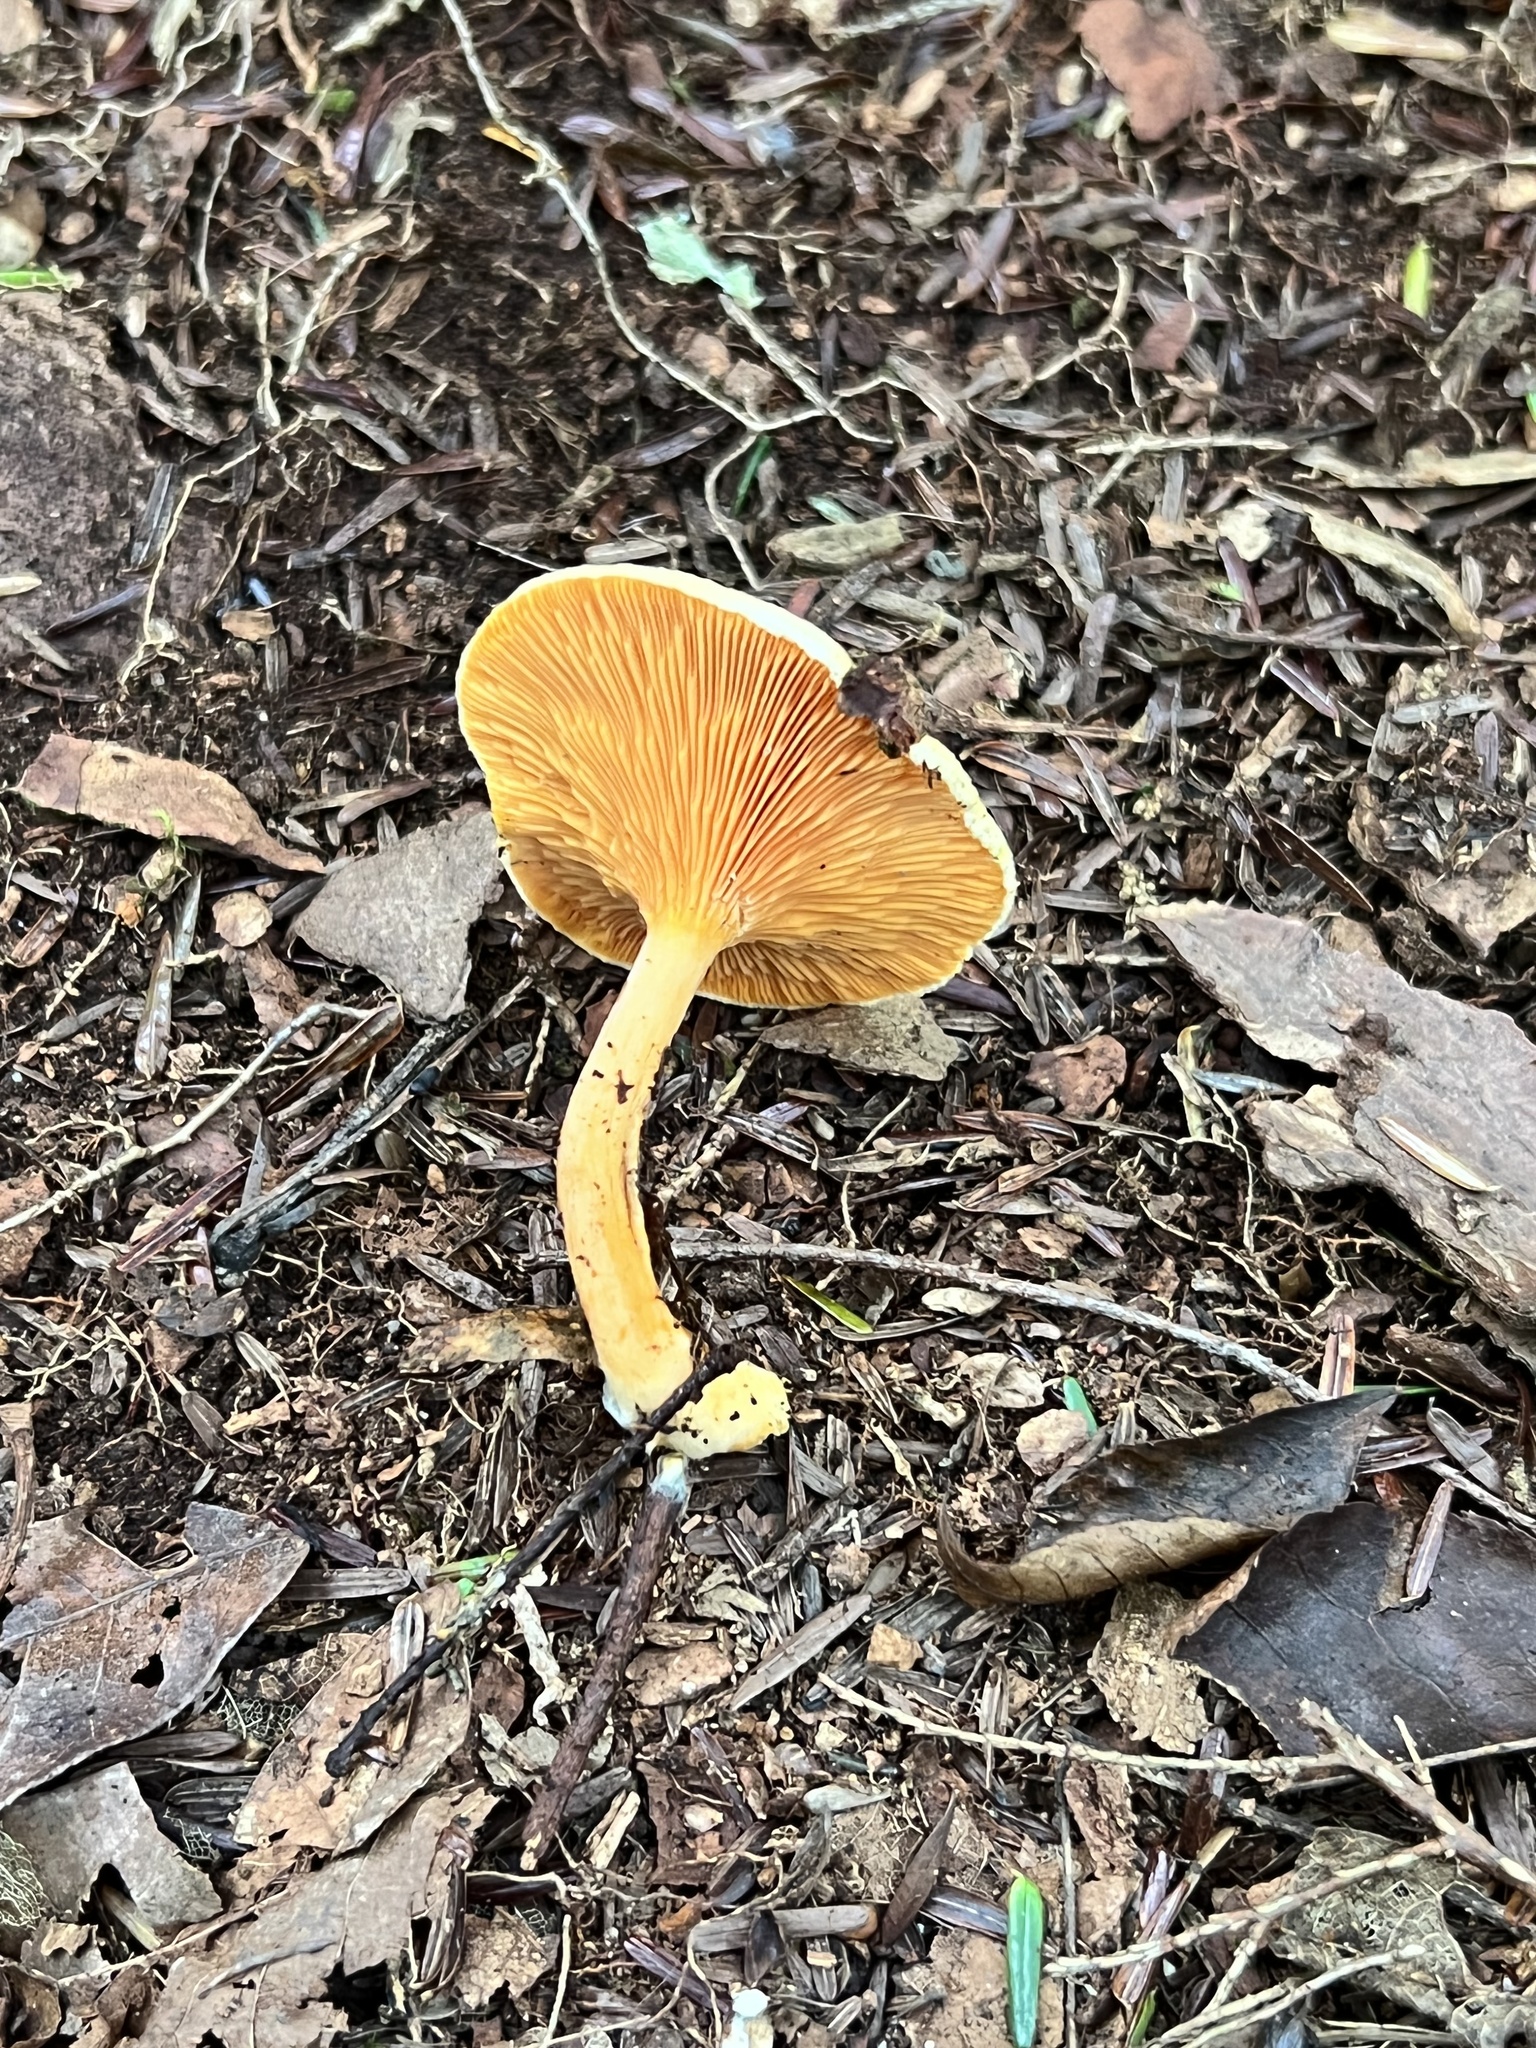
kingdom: Fungi
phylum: Basidiomycota
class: Agaricomycetes
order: Boletales
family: Hygrophoropsidaceae
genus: Hygrophoropsis
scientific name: Hygrophoropsis aurantiaca
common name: False chanterelle
